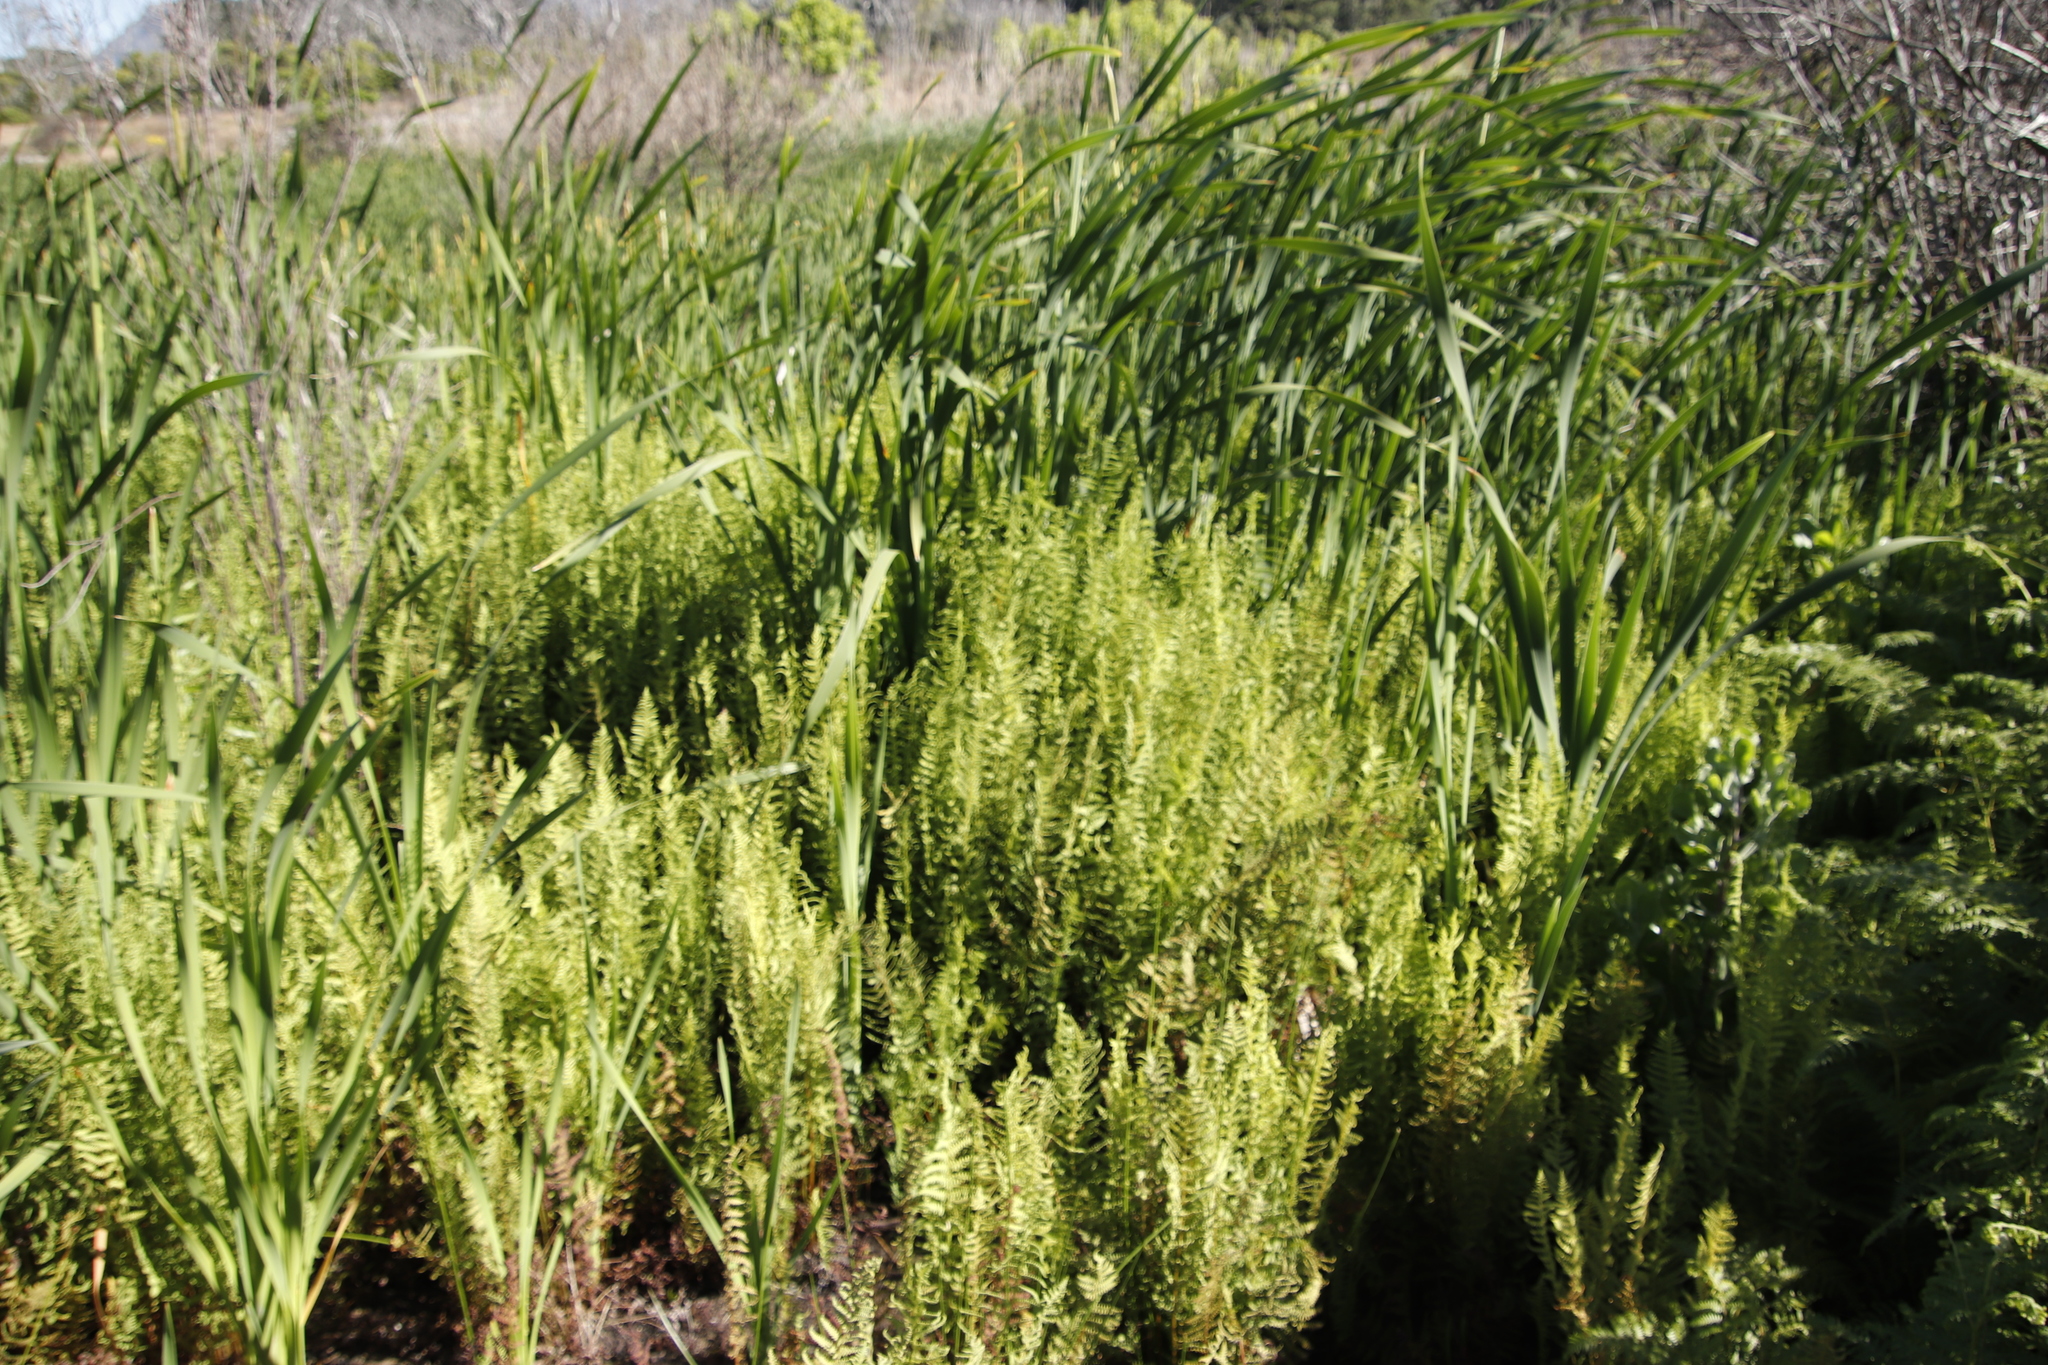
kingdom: Plantae
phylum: Tracheophyta
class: Polypodiopsida
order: Polypodiales
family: Thelypteridaceae
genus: Thelypteris
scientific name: Thelypteris confluens
